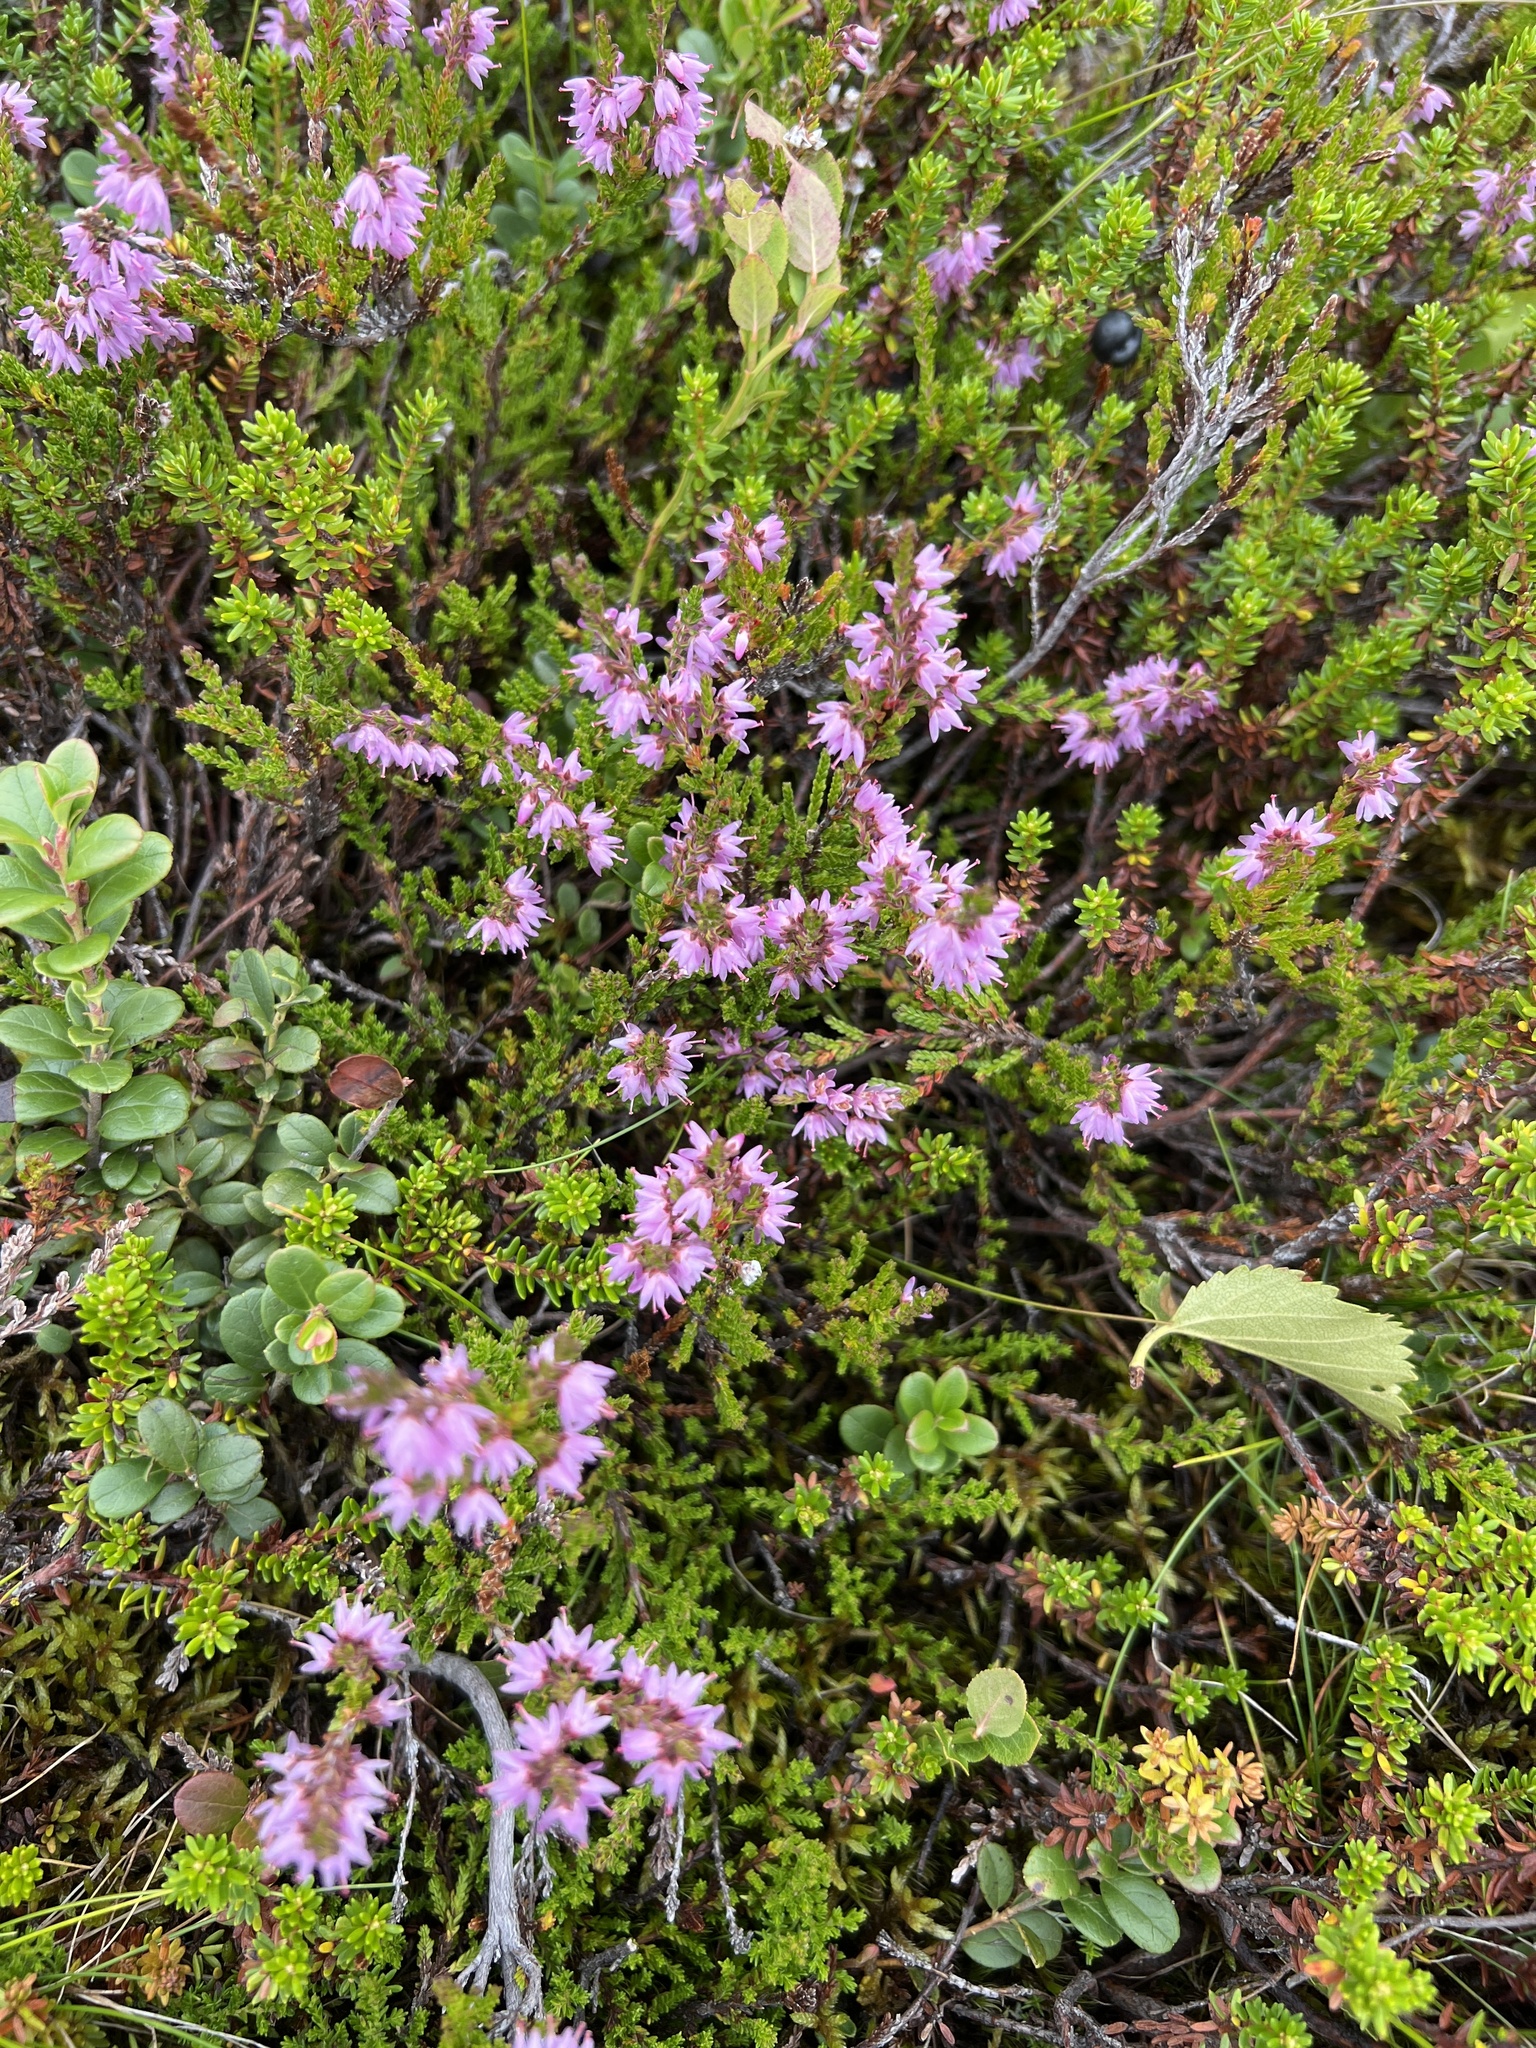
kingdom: Plantae
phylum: Tracheophyta
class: Magnoliopsida
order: Ericales
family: Ericaceae
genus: Calluna
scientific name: Calluna vulgaris
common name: Heather
